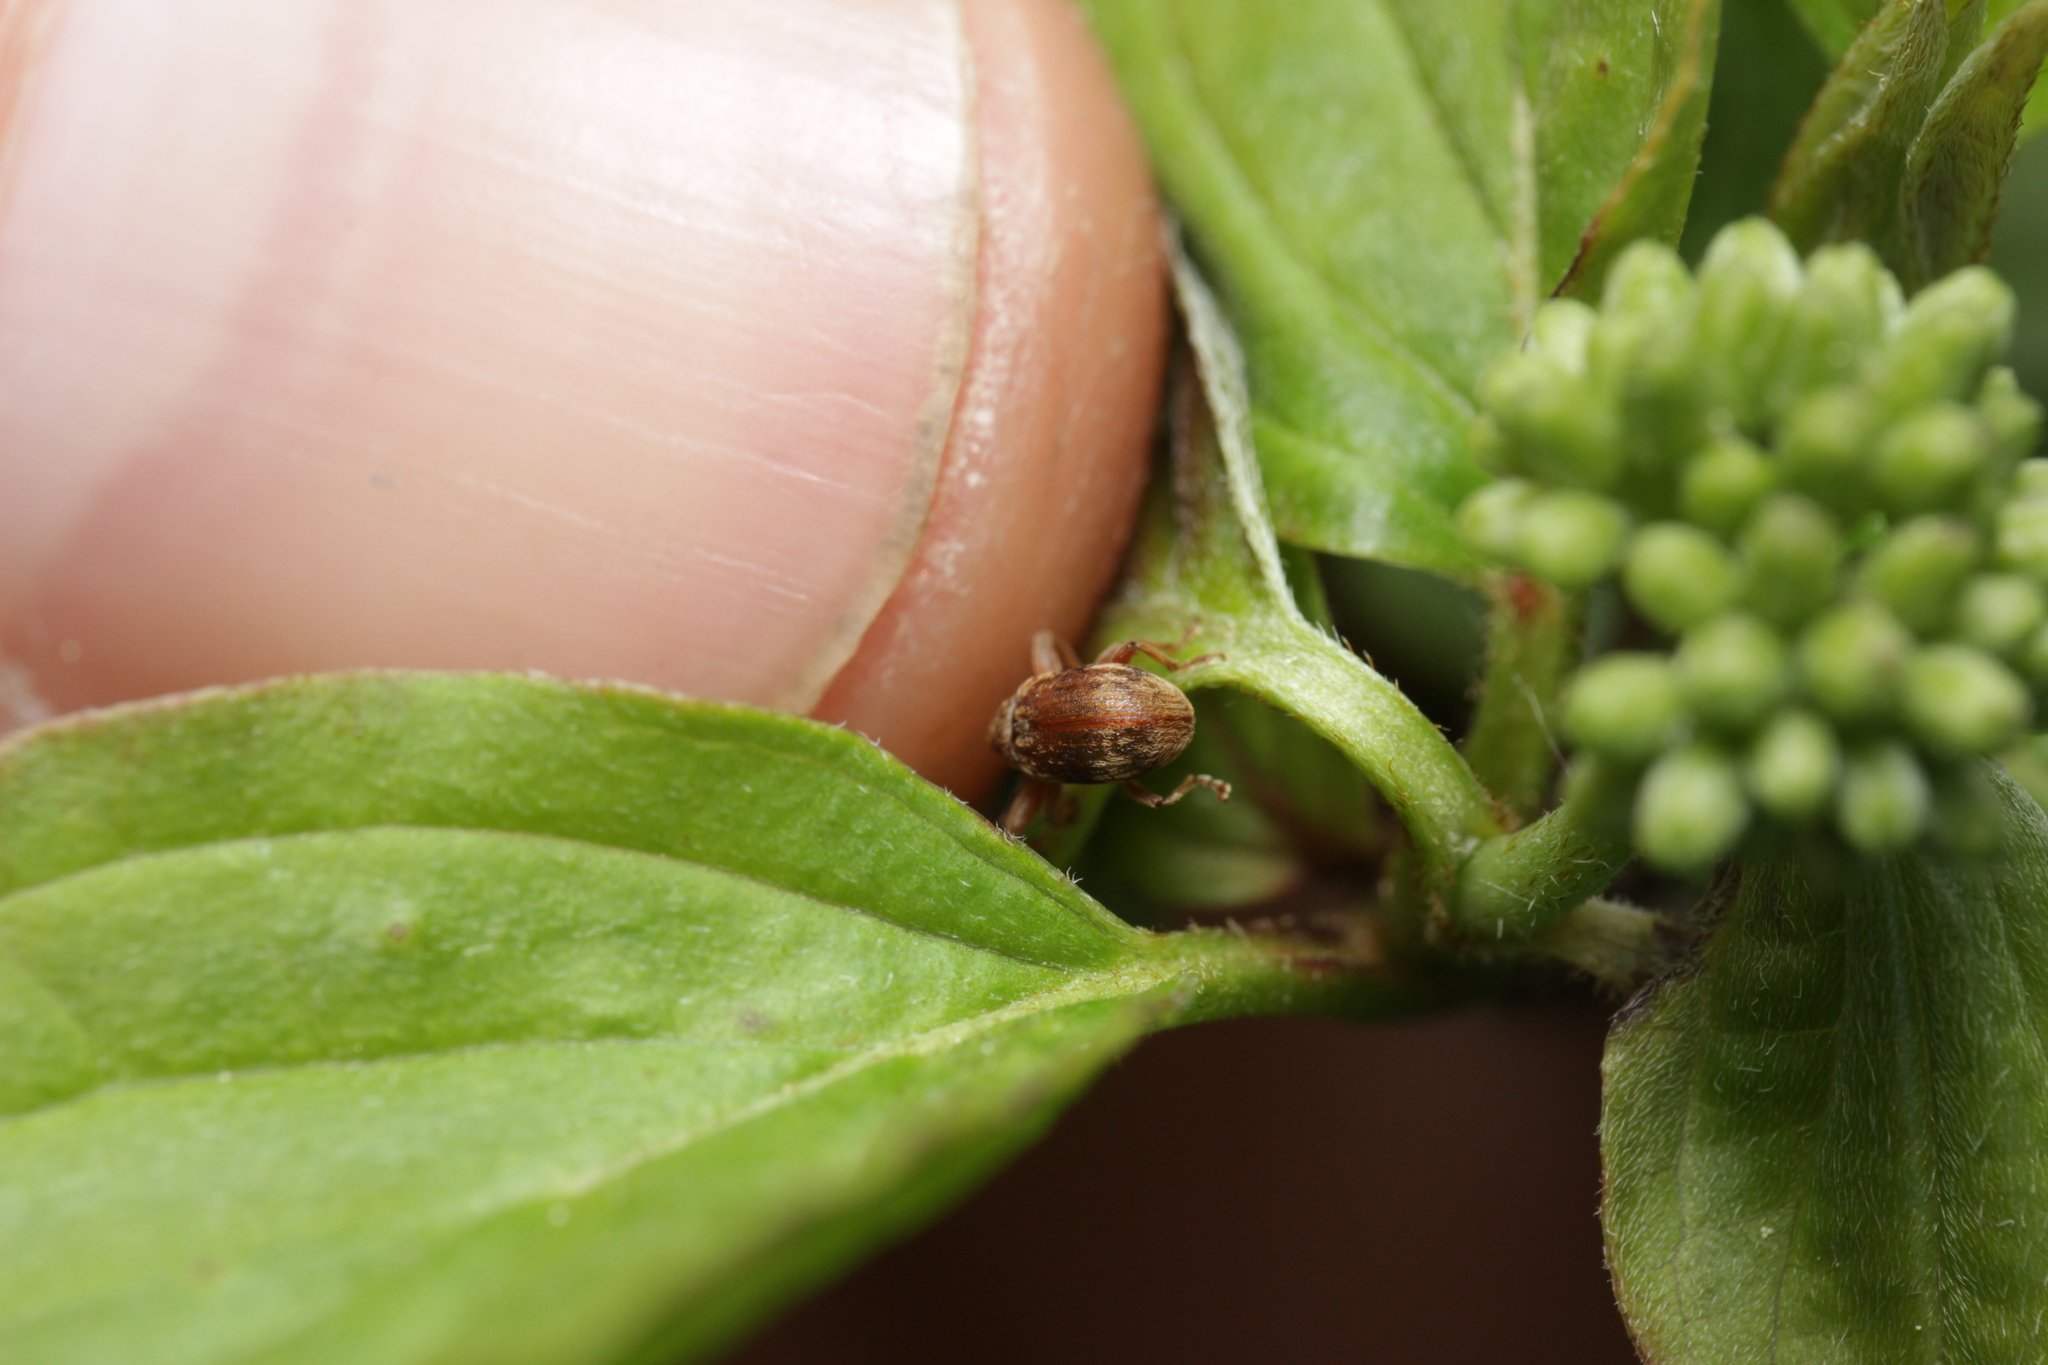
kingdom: Animalia
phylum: Arthropoda
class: Insecta
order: Coleoptera
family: Curculionidae
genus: Anthonomus
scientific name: Anthonomus rectirostris
